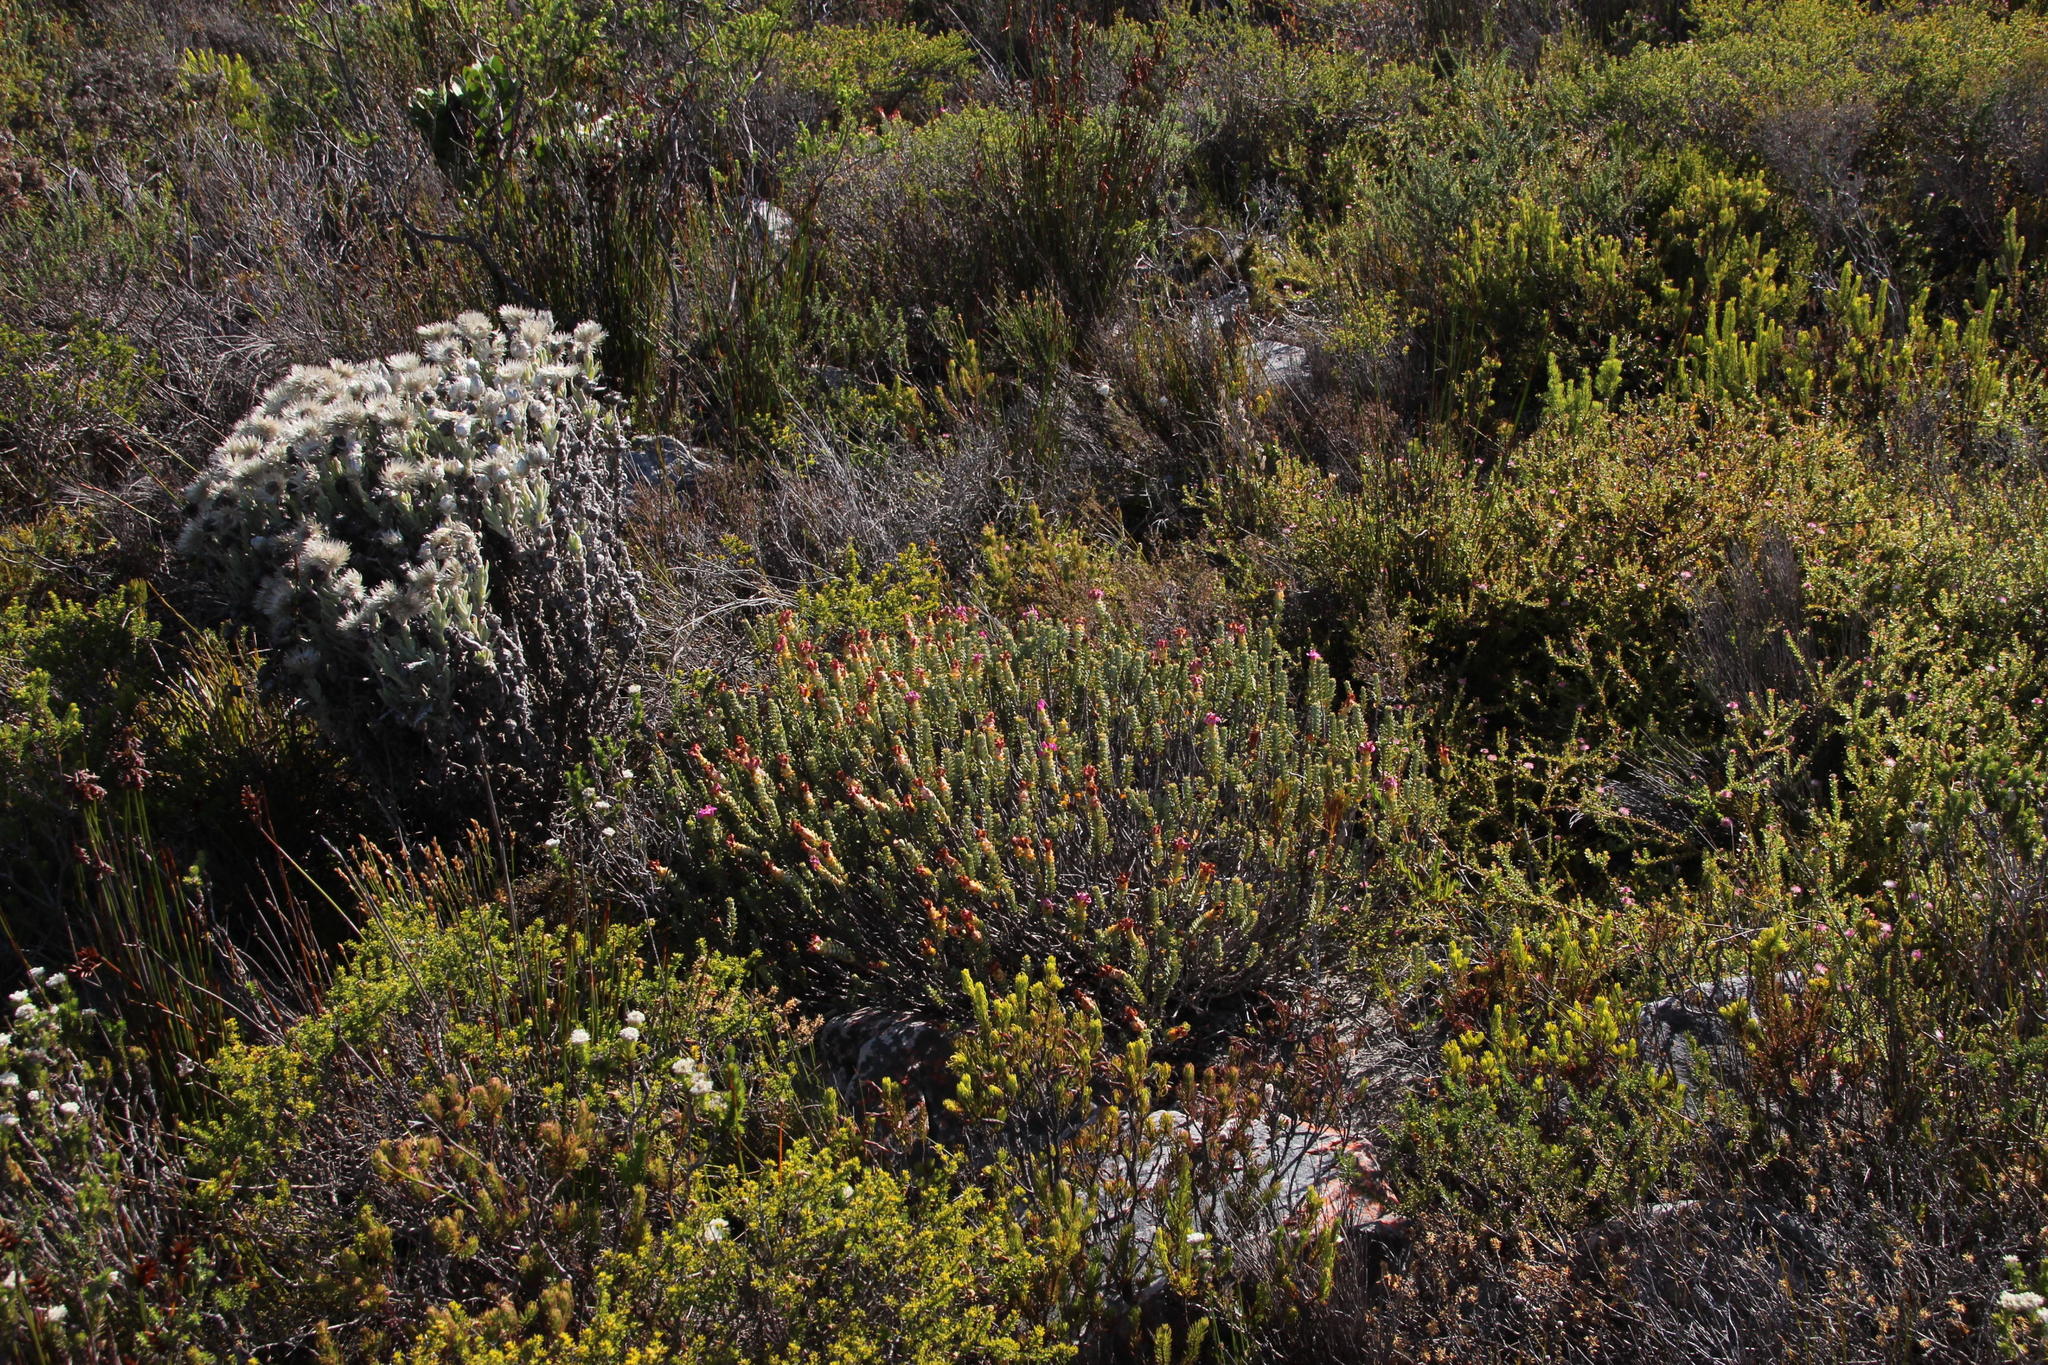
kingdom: Plantae
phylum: Tracheophyta
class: Magnoliopsida
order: Myrtales
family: Penaeaceae
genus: Saltera
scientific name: Saltera sarcocolla
